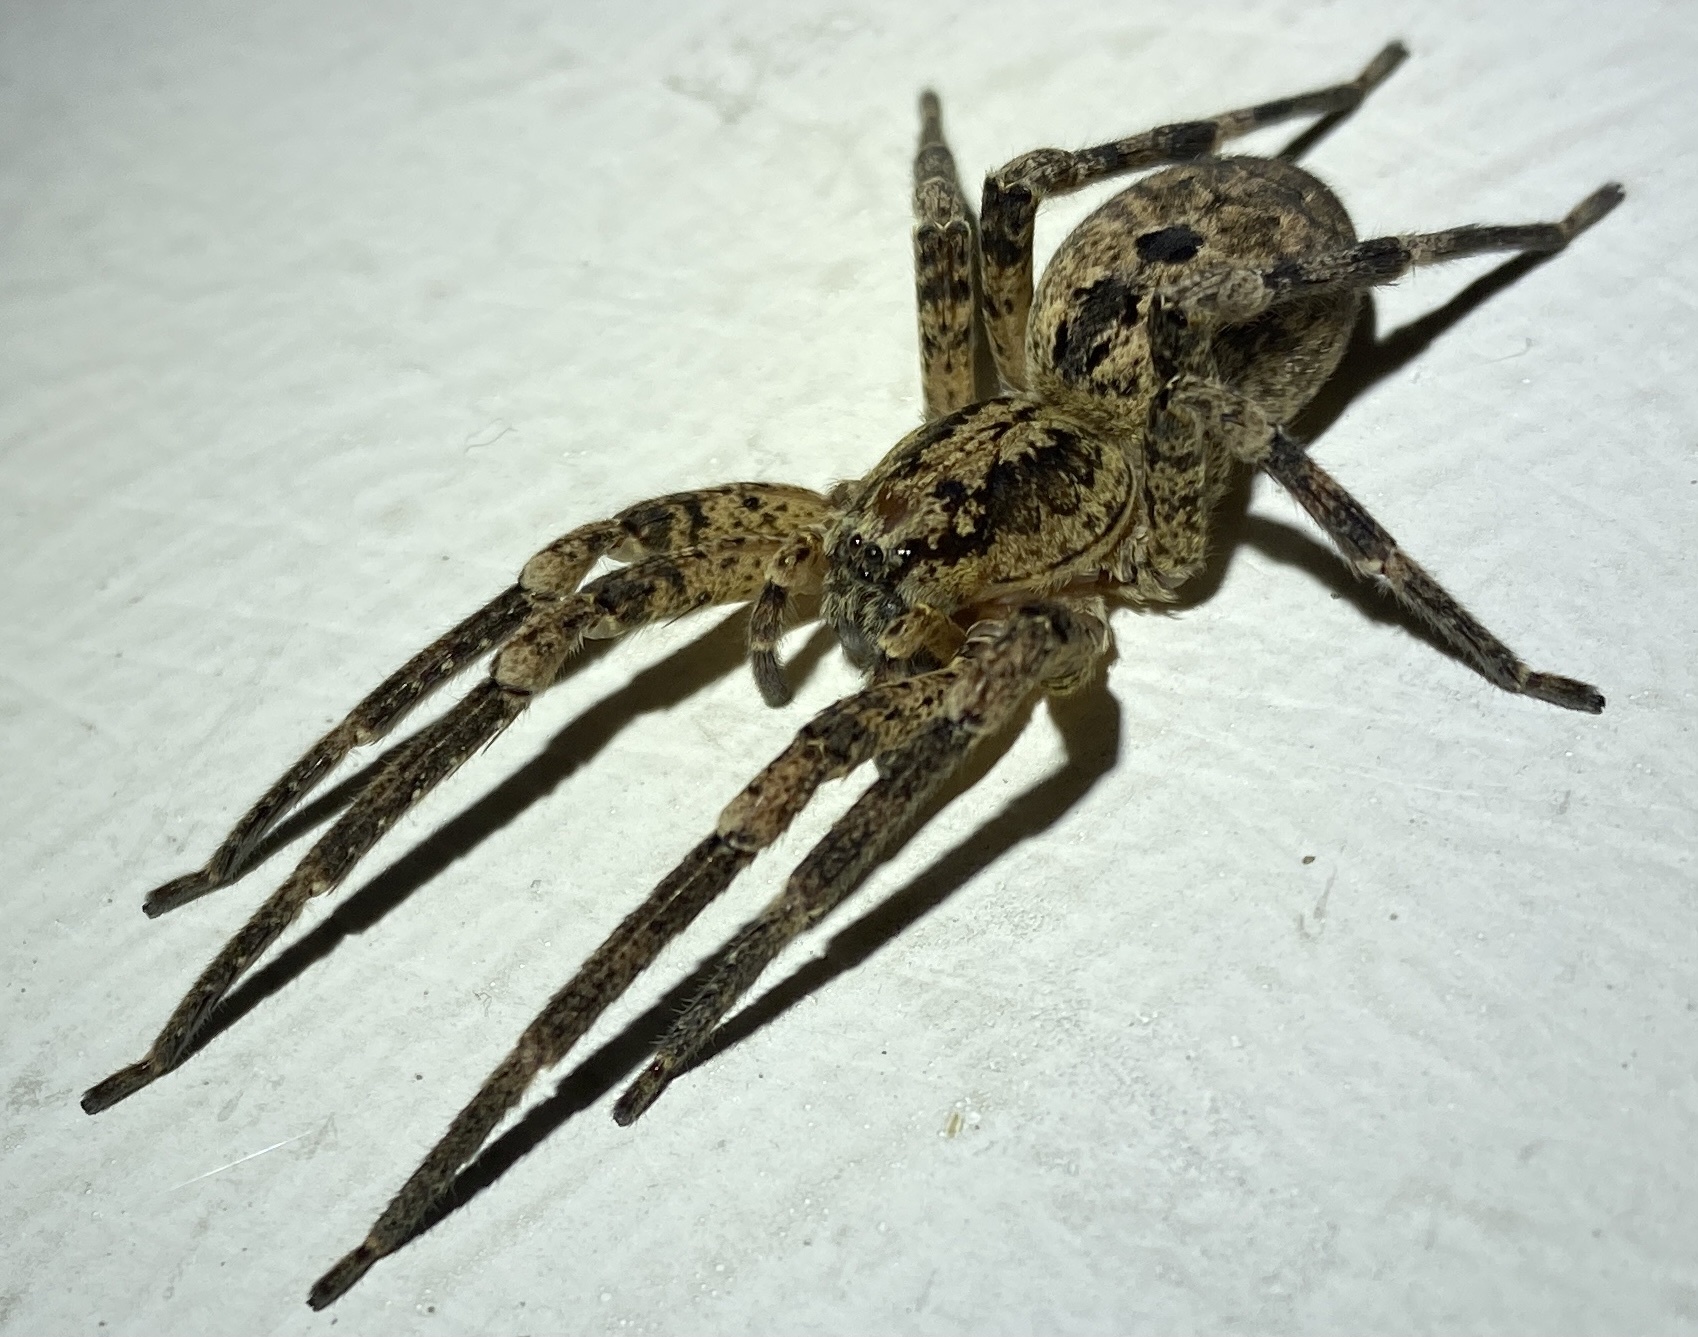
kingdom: Animalia
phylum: Arthropoda
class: Arachnida
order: Araneae
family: Zoropsidae
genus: Zoropsis
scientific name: Zoropsis spinimana
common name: Zoropsid spider
